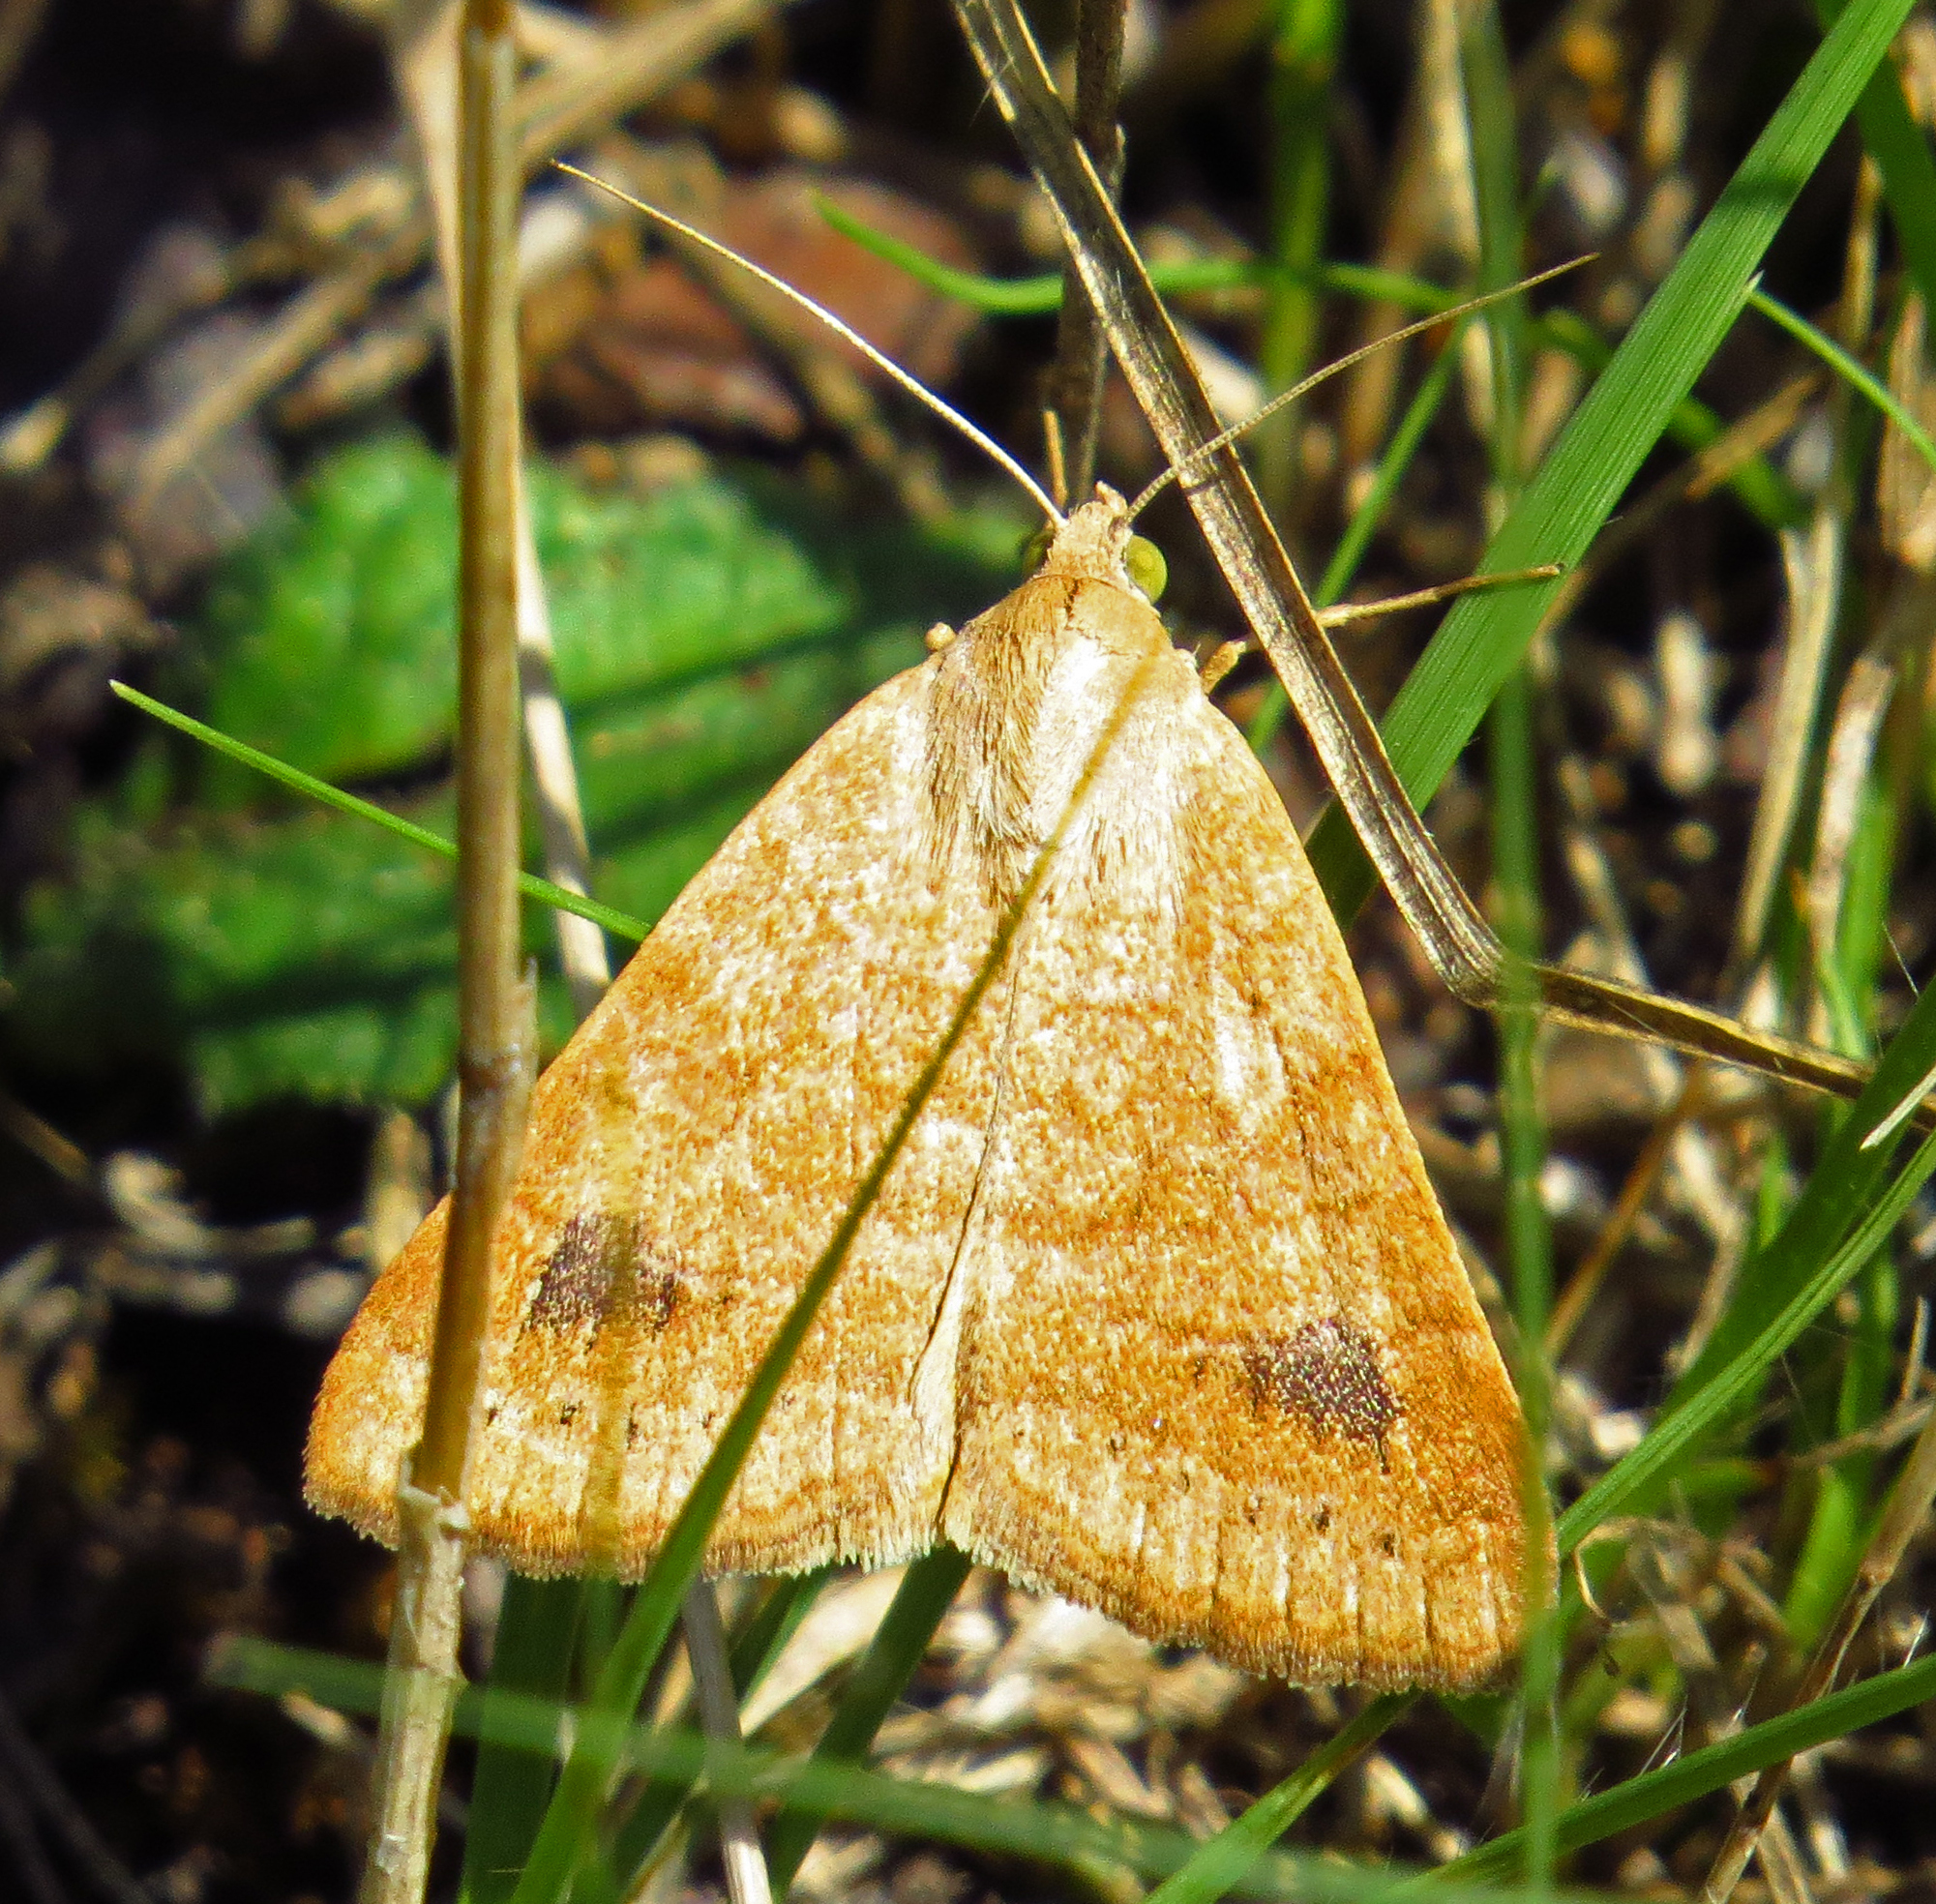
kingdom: Animalia
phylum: Arthropoda
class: Insecta
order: Lepidoptera
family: Erebidae
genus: Caenurgia
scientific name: Caenurgia chloropha
